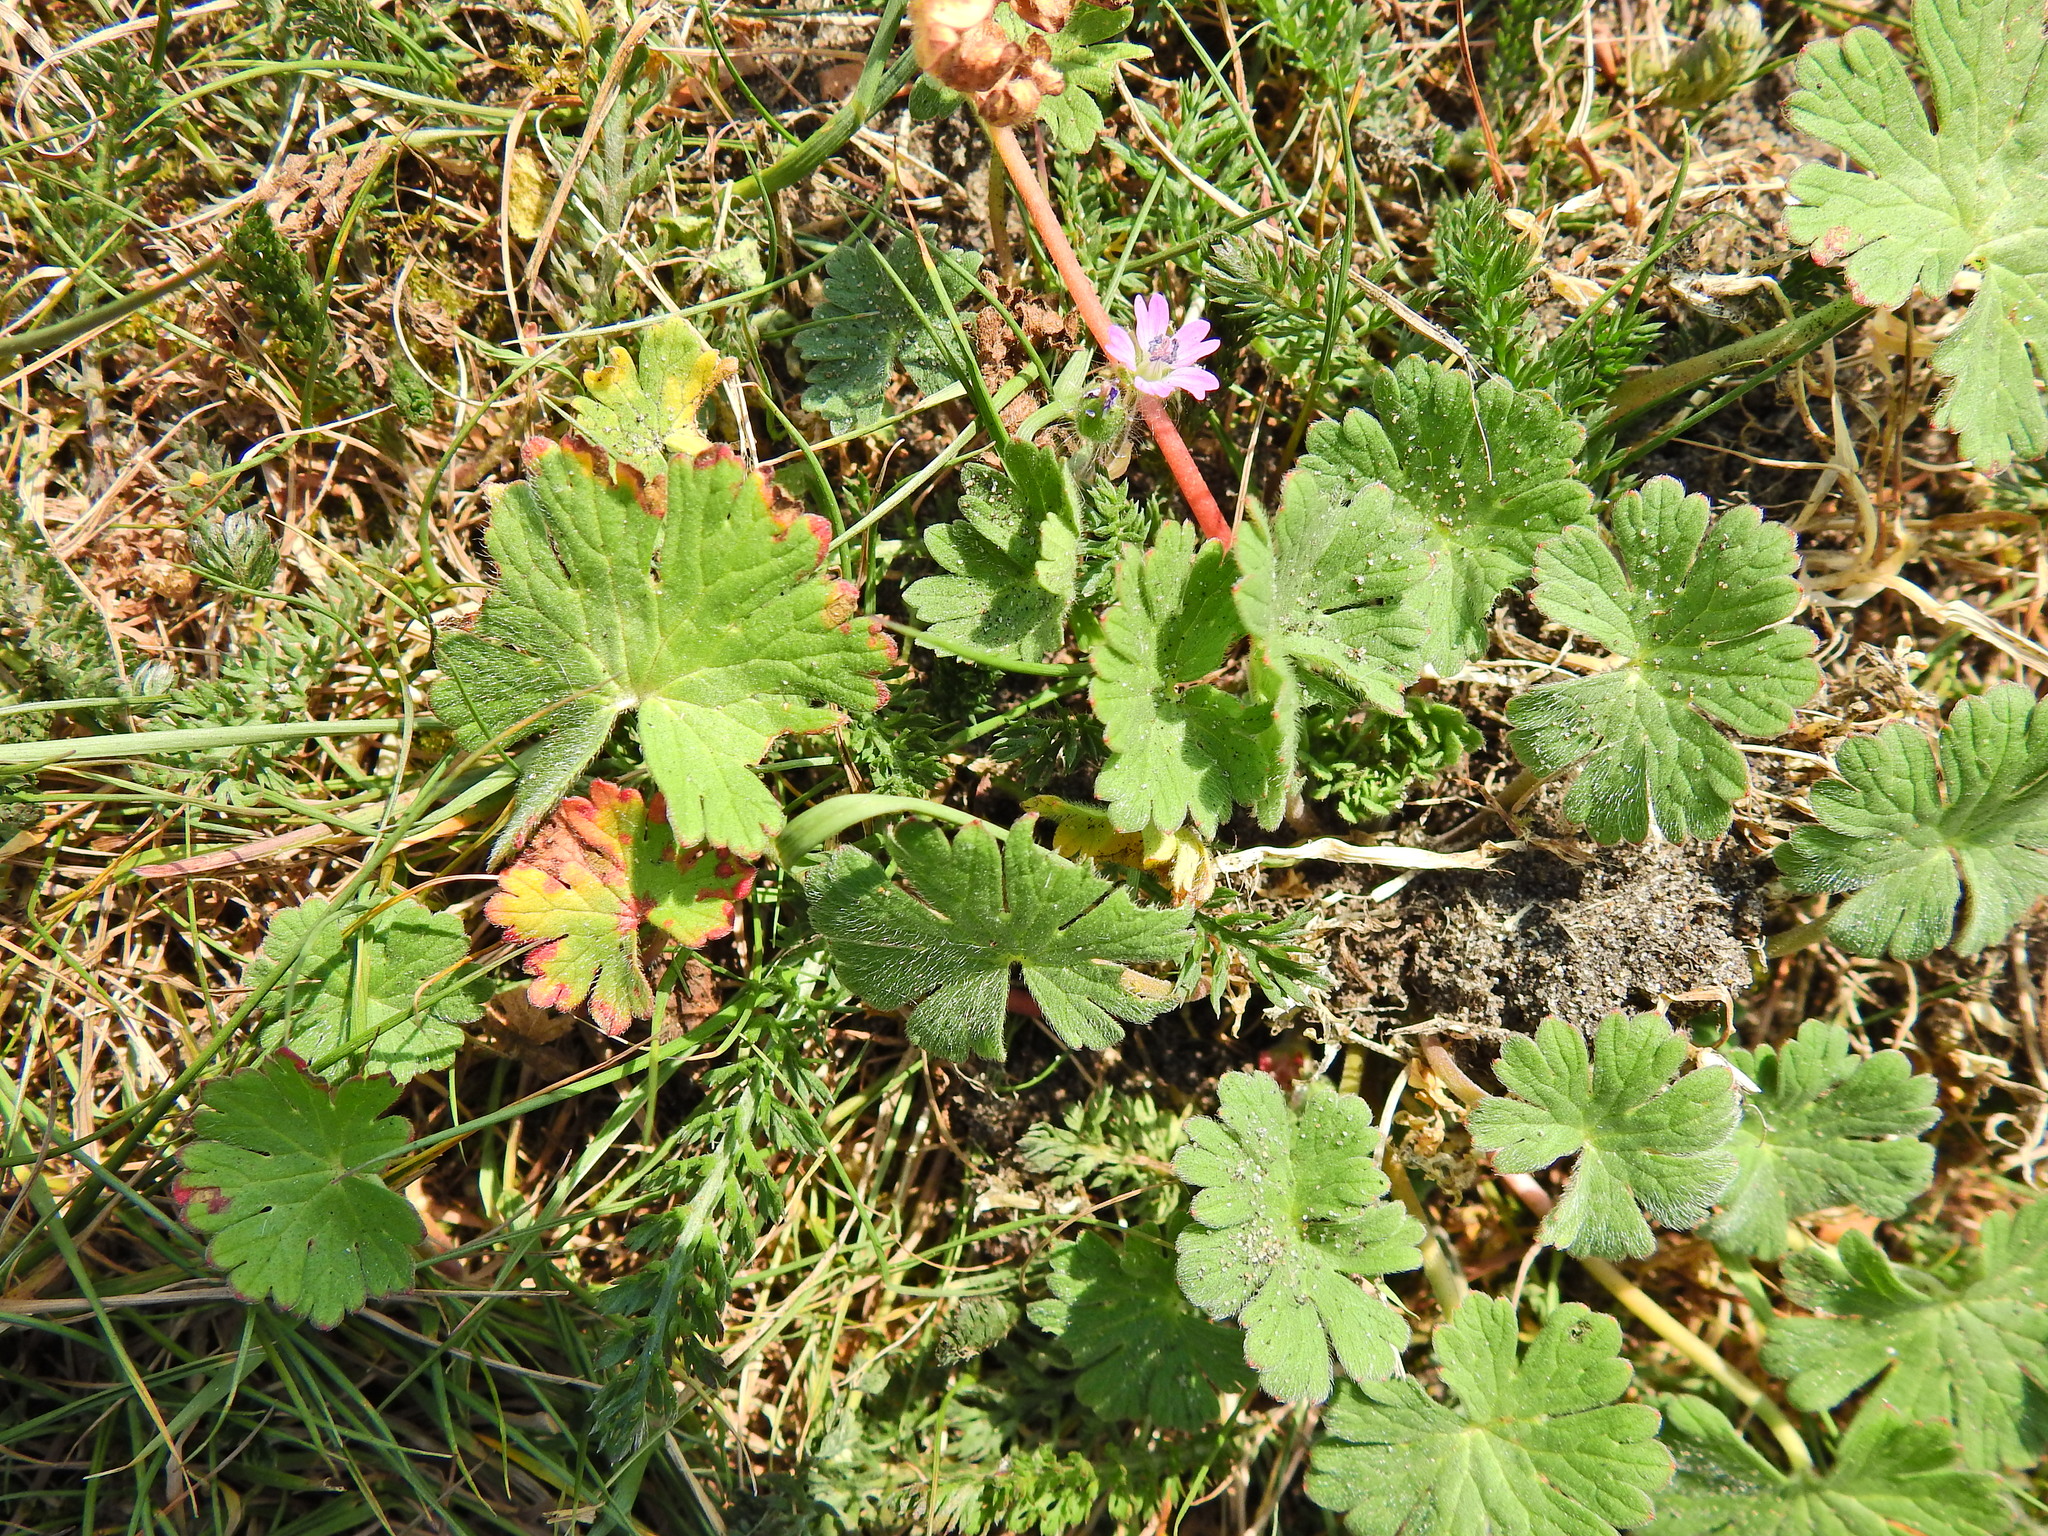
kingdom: Plantae
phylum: Tracheophyta
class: Magnoliopsida
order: Geraniales
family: Geraniaceae
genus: Geranium
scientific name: Geranium molle
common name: Dove's-foot crane's-bill
